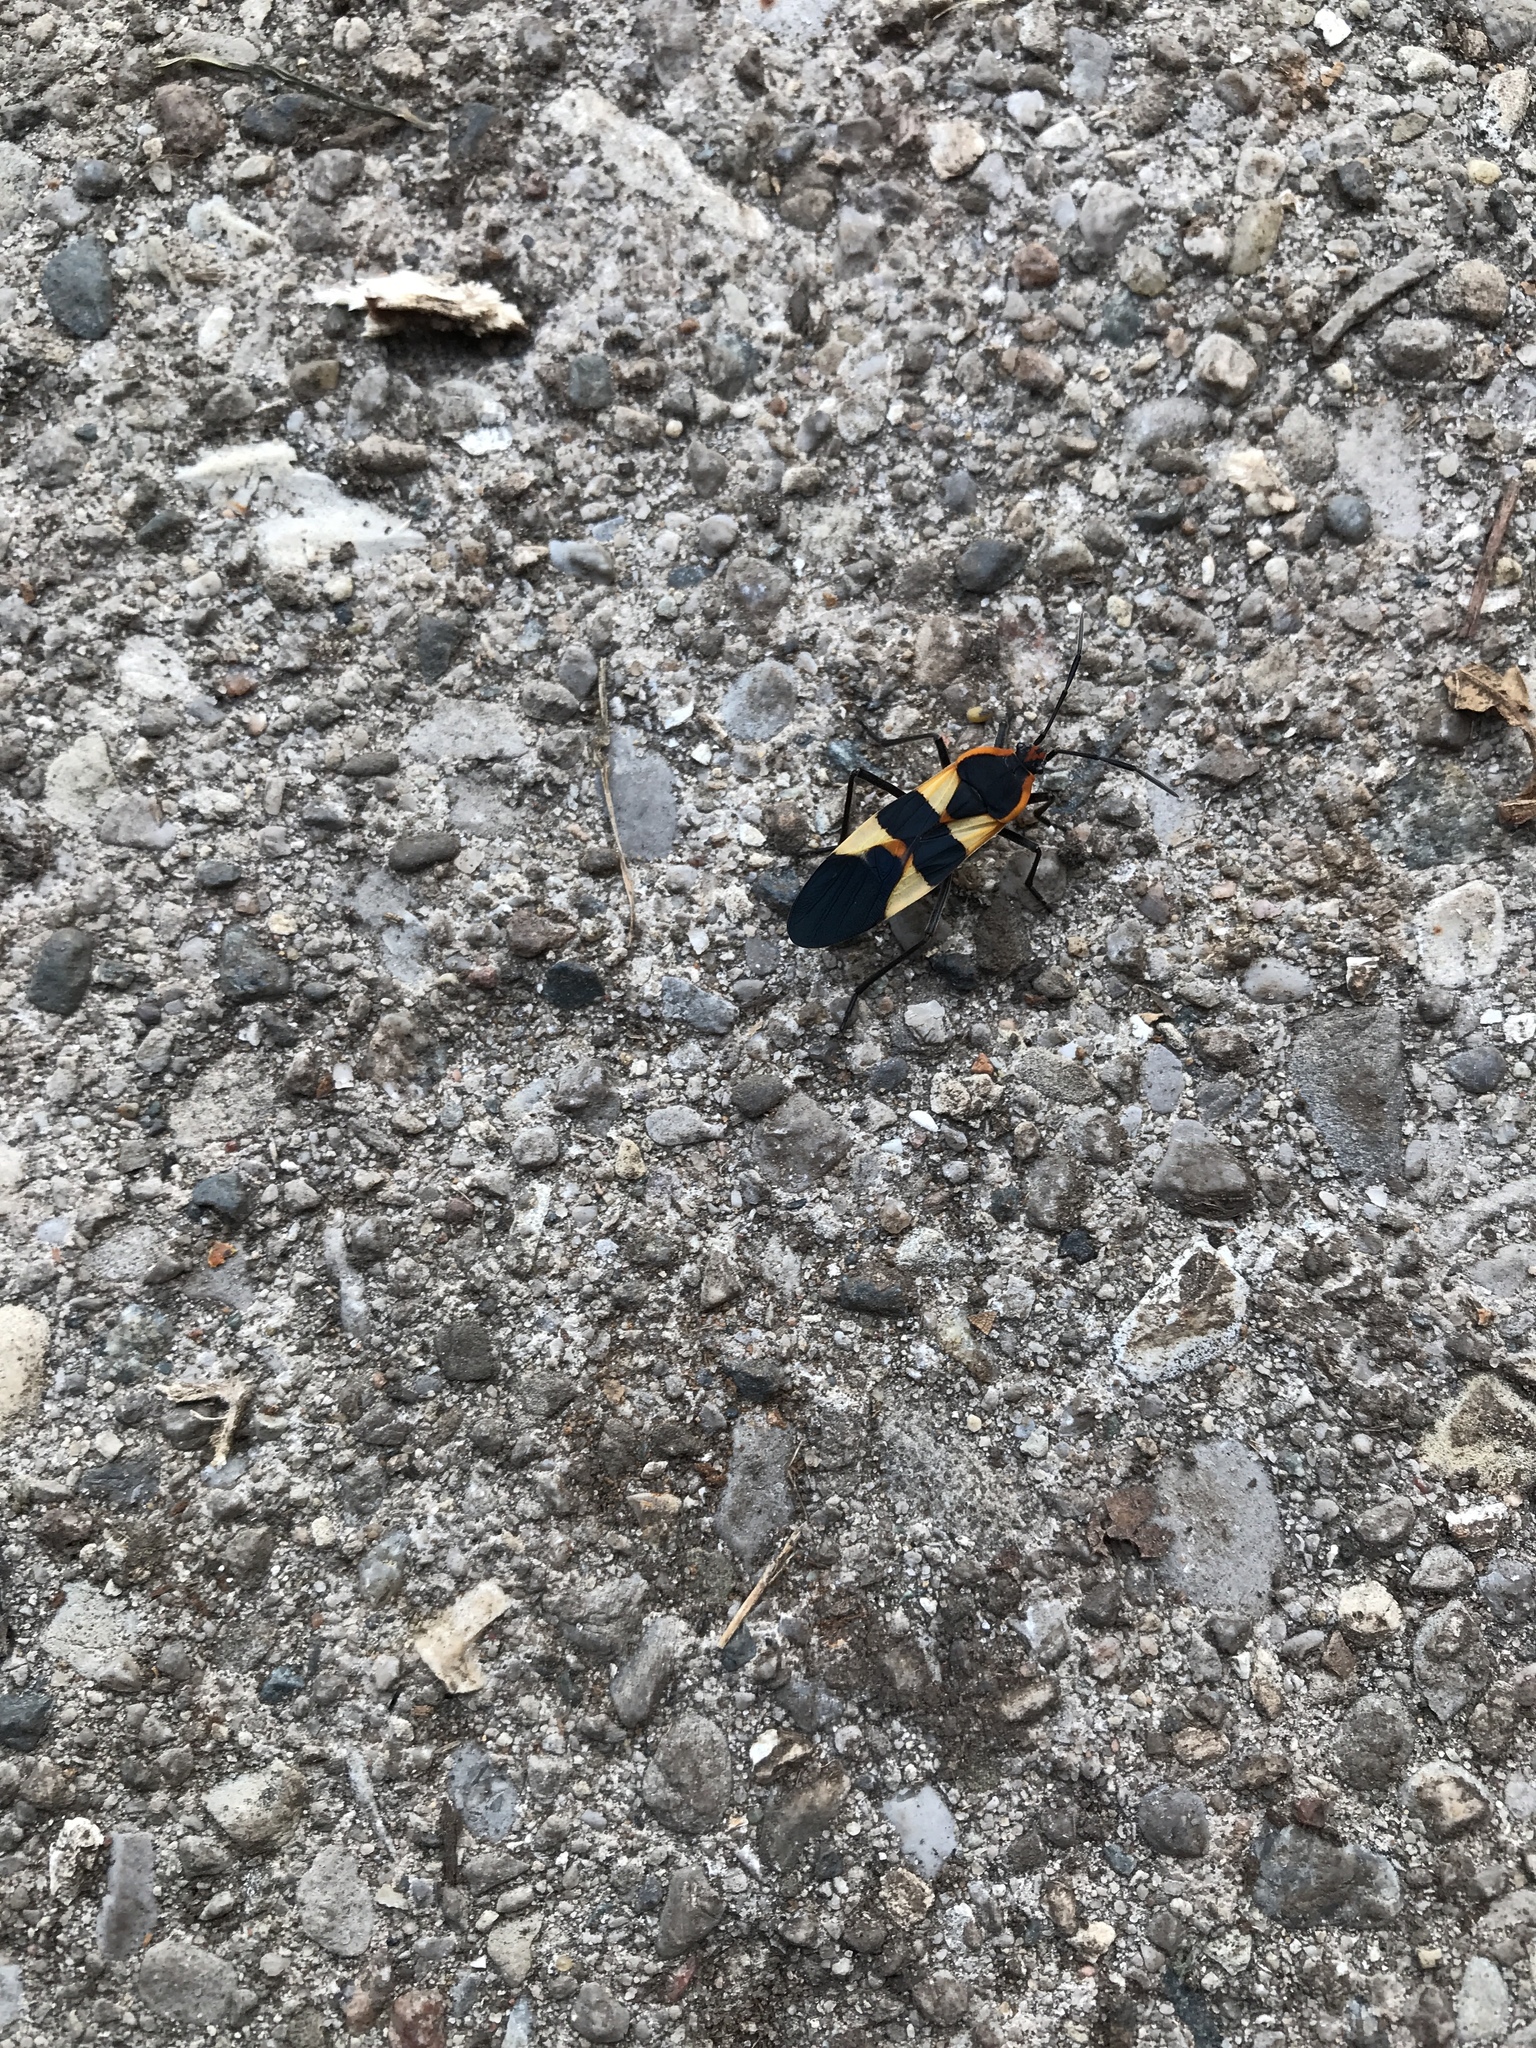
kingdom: Animalia
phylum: Arthropoda
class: Insecta
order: Hemiptera
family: Lygaeidae
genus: Oncopeltus
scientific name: Oncopeltus fasciatus
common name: Large milkweed bug
